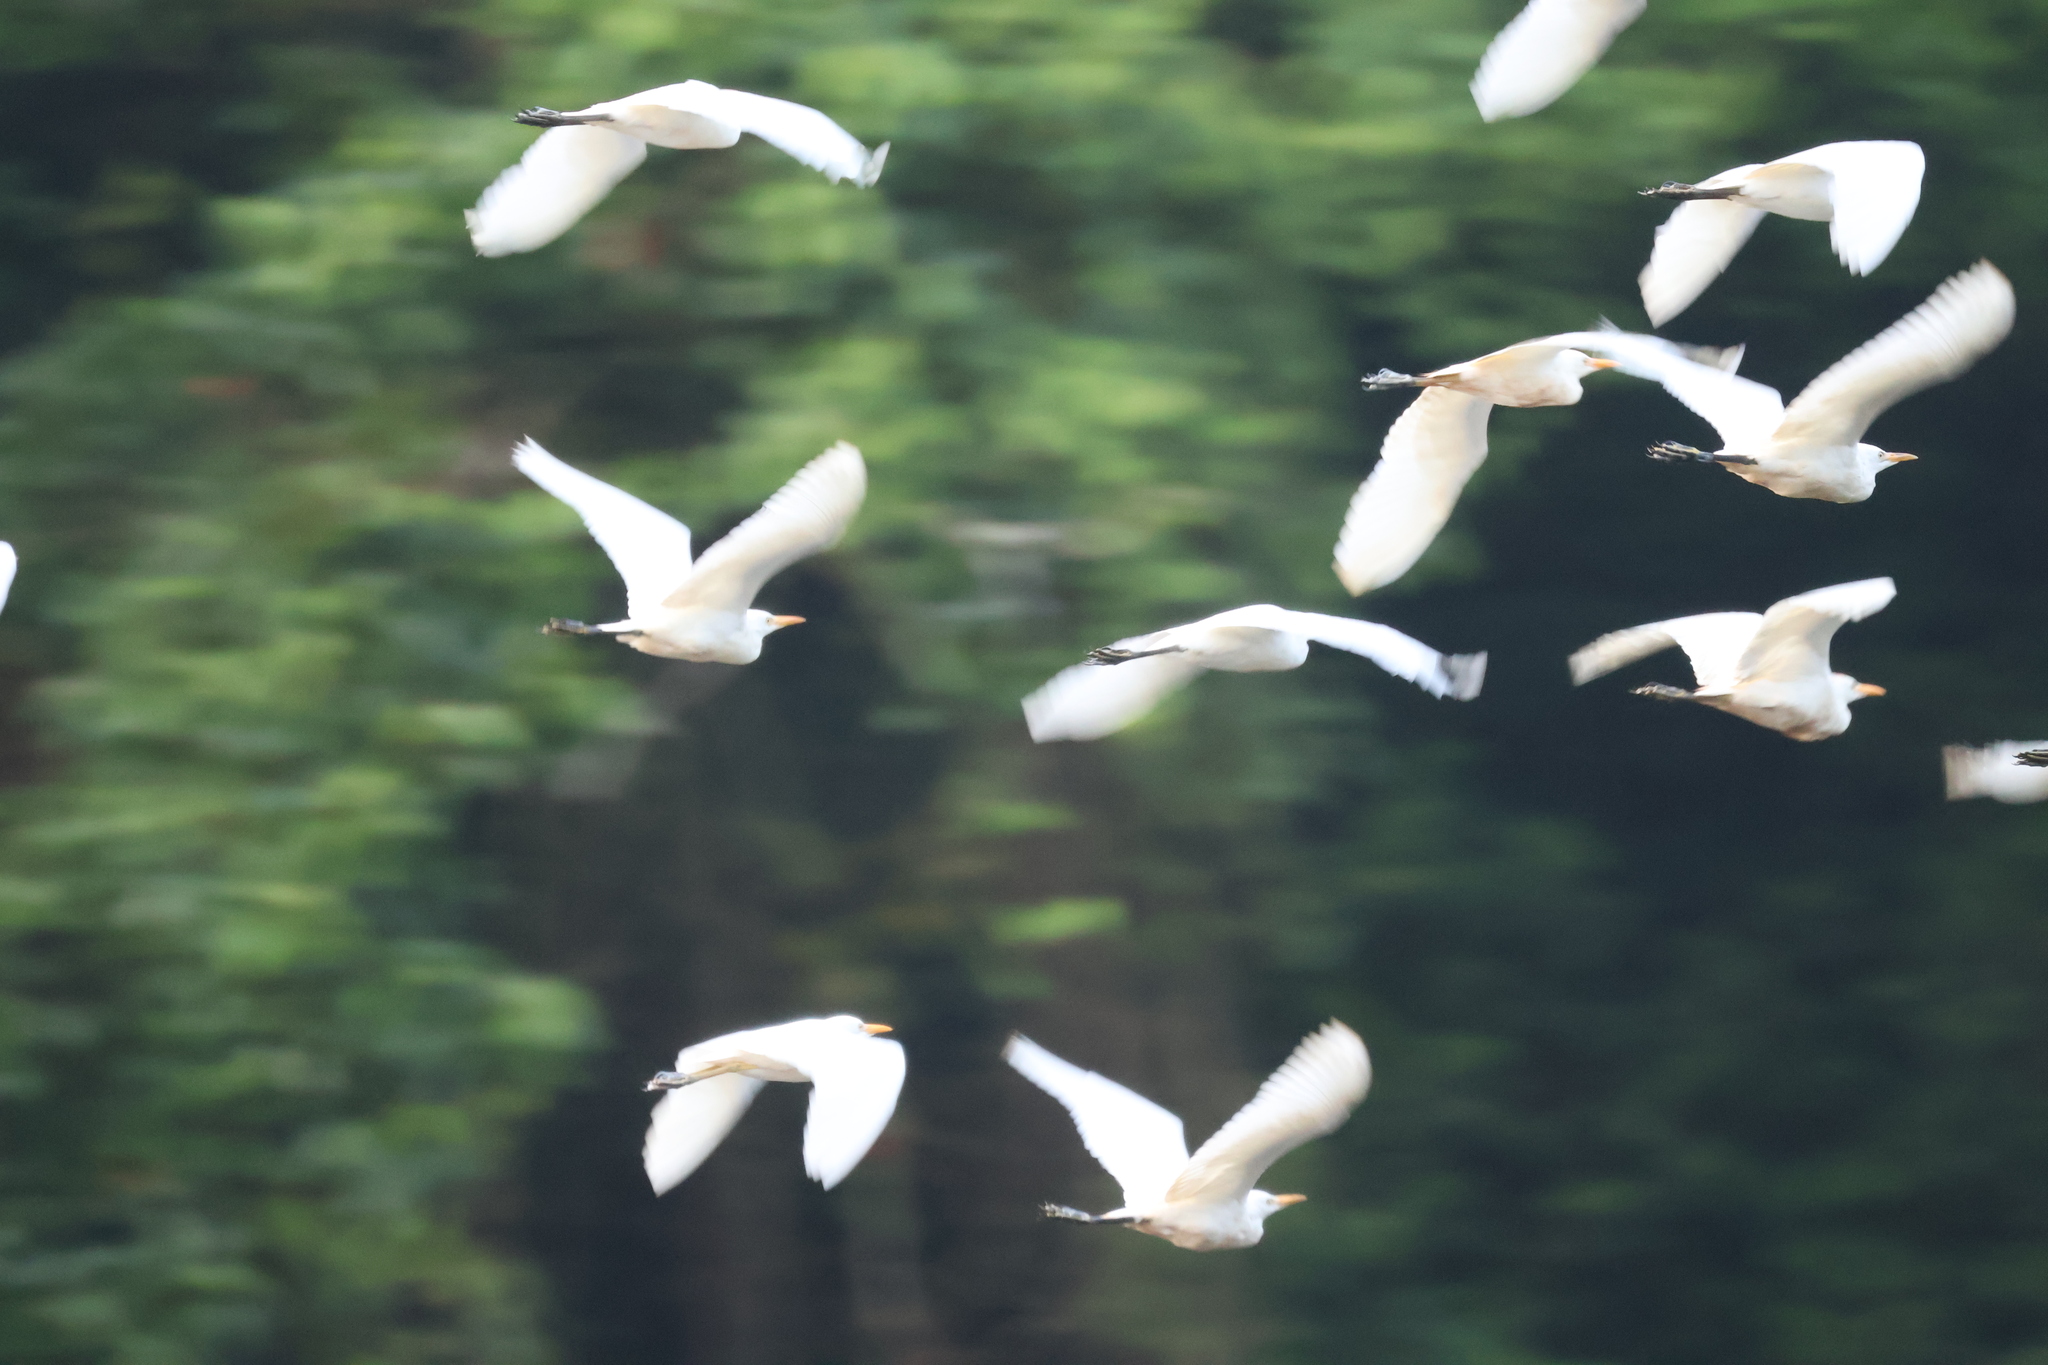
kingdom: Animalia
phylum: Chordata
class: Aves
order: Pelecaniformes
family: Ardeidae
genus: Bubulcus
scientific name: Bubulcus ibis
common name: Cattle egret
